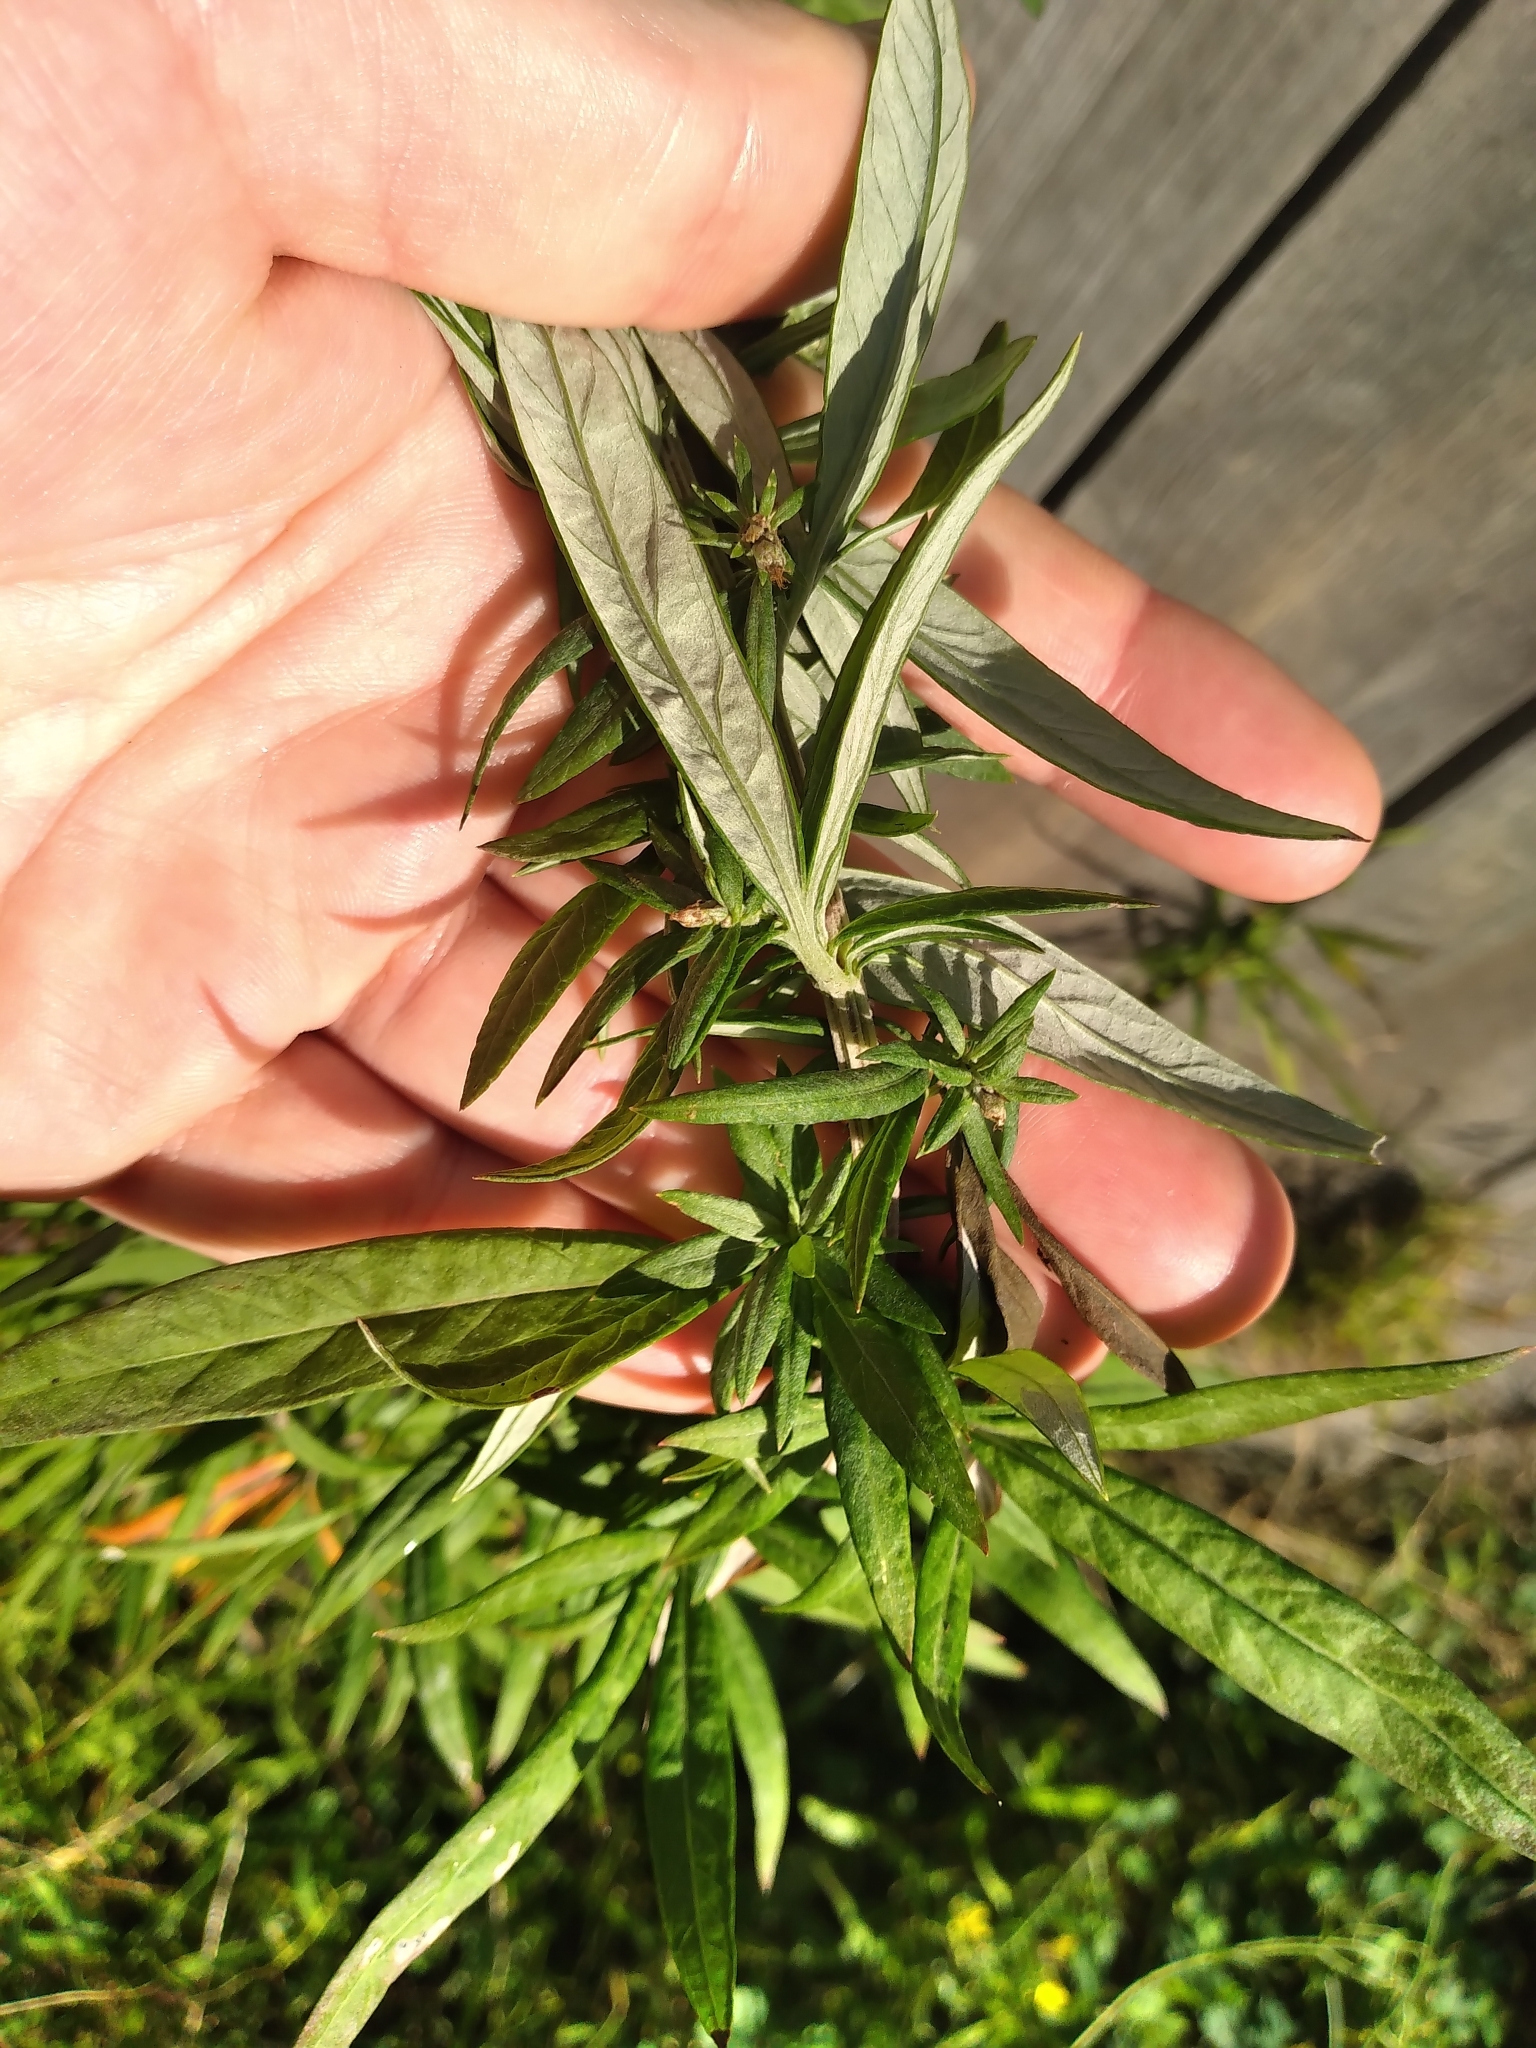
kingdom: Plantae
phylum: Tracheophyta
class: Magnoliopsida
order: Asterales
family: Asteraceae
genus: Artemisia
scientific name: Artemisia verlotiorum
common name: Chinese mugwort
